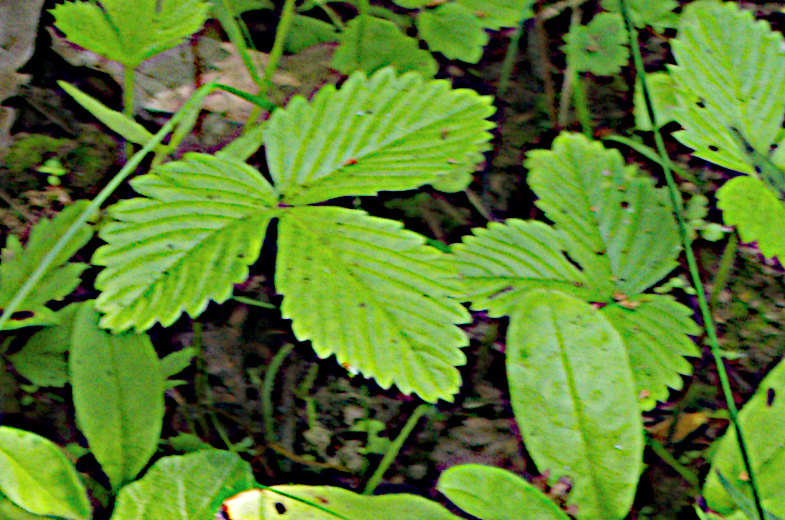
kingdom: Plantae
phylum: Tracheophyta
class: Magnoliopsida
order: Rosales
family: Rosaceae
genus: Fragaria
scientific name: Fragaria vesca
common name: Wild strawberry
